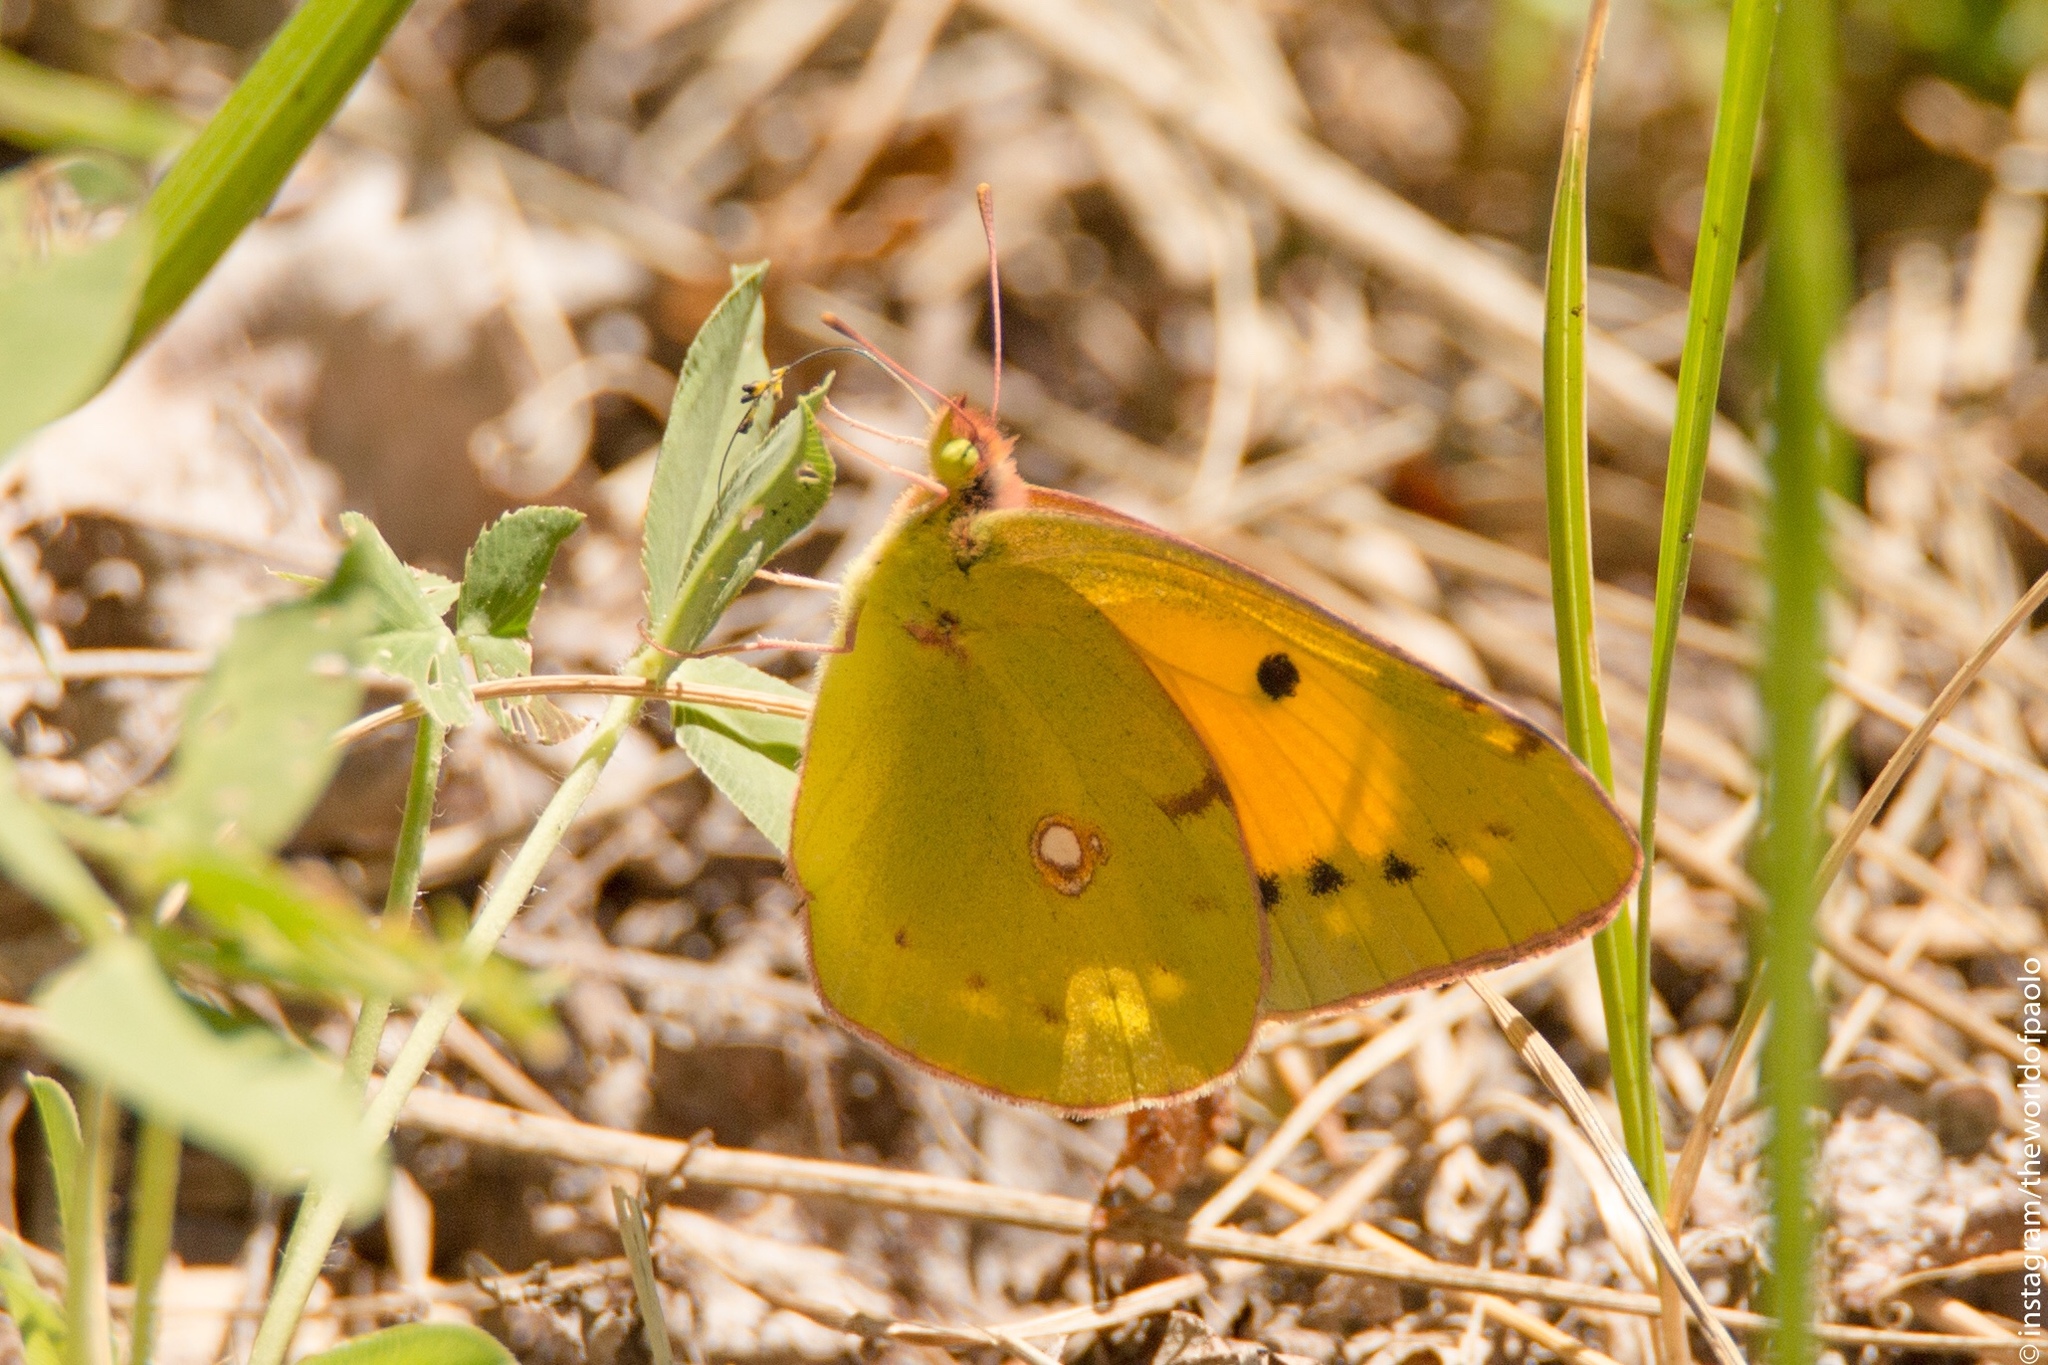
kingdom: Animalia
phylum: Arthropoda
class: Insecta
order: Lepidoptera
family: Pieridae
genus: Colias
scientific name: Colias croceus
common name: Clouded yellow
